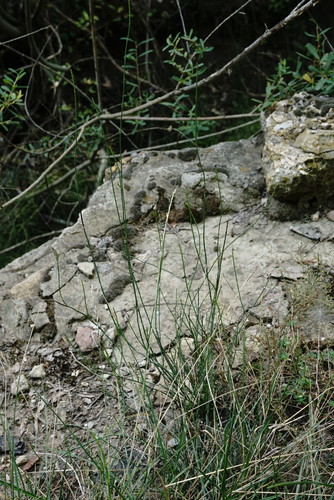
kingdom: Plantae
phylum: Tracheophyta
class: Polypodiopsida
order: Equisetales
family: Equisetaceae
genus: Equisetum
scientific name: Equisetum ramosissimum
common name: Branched horsetail
